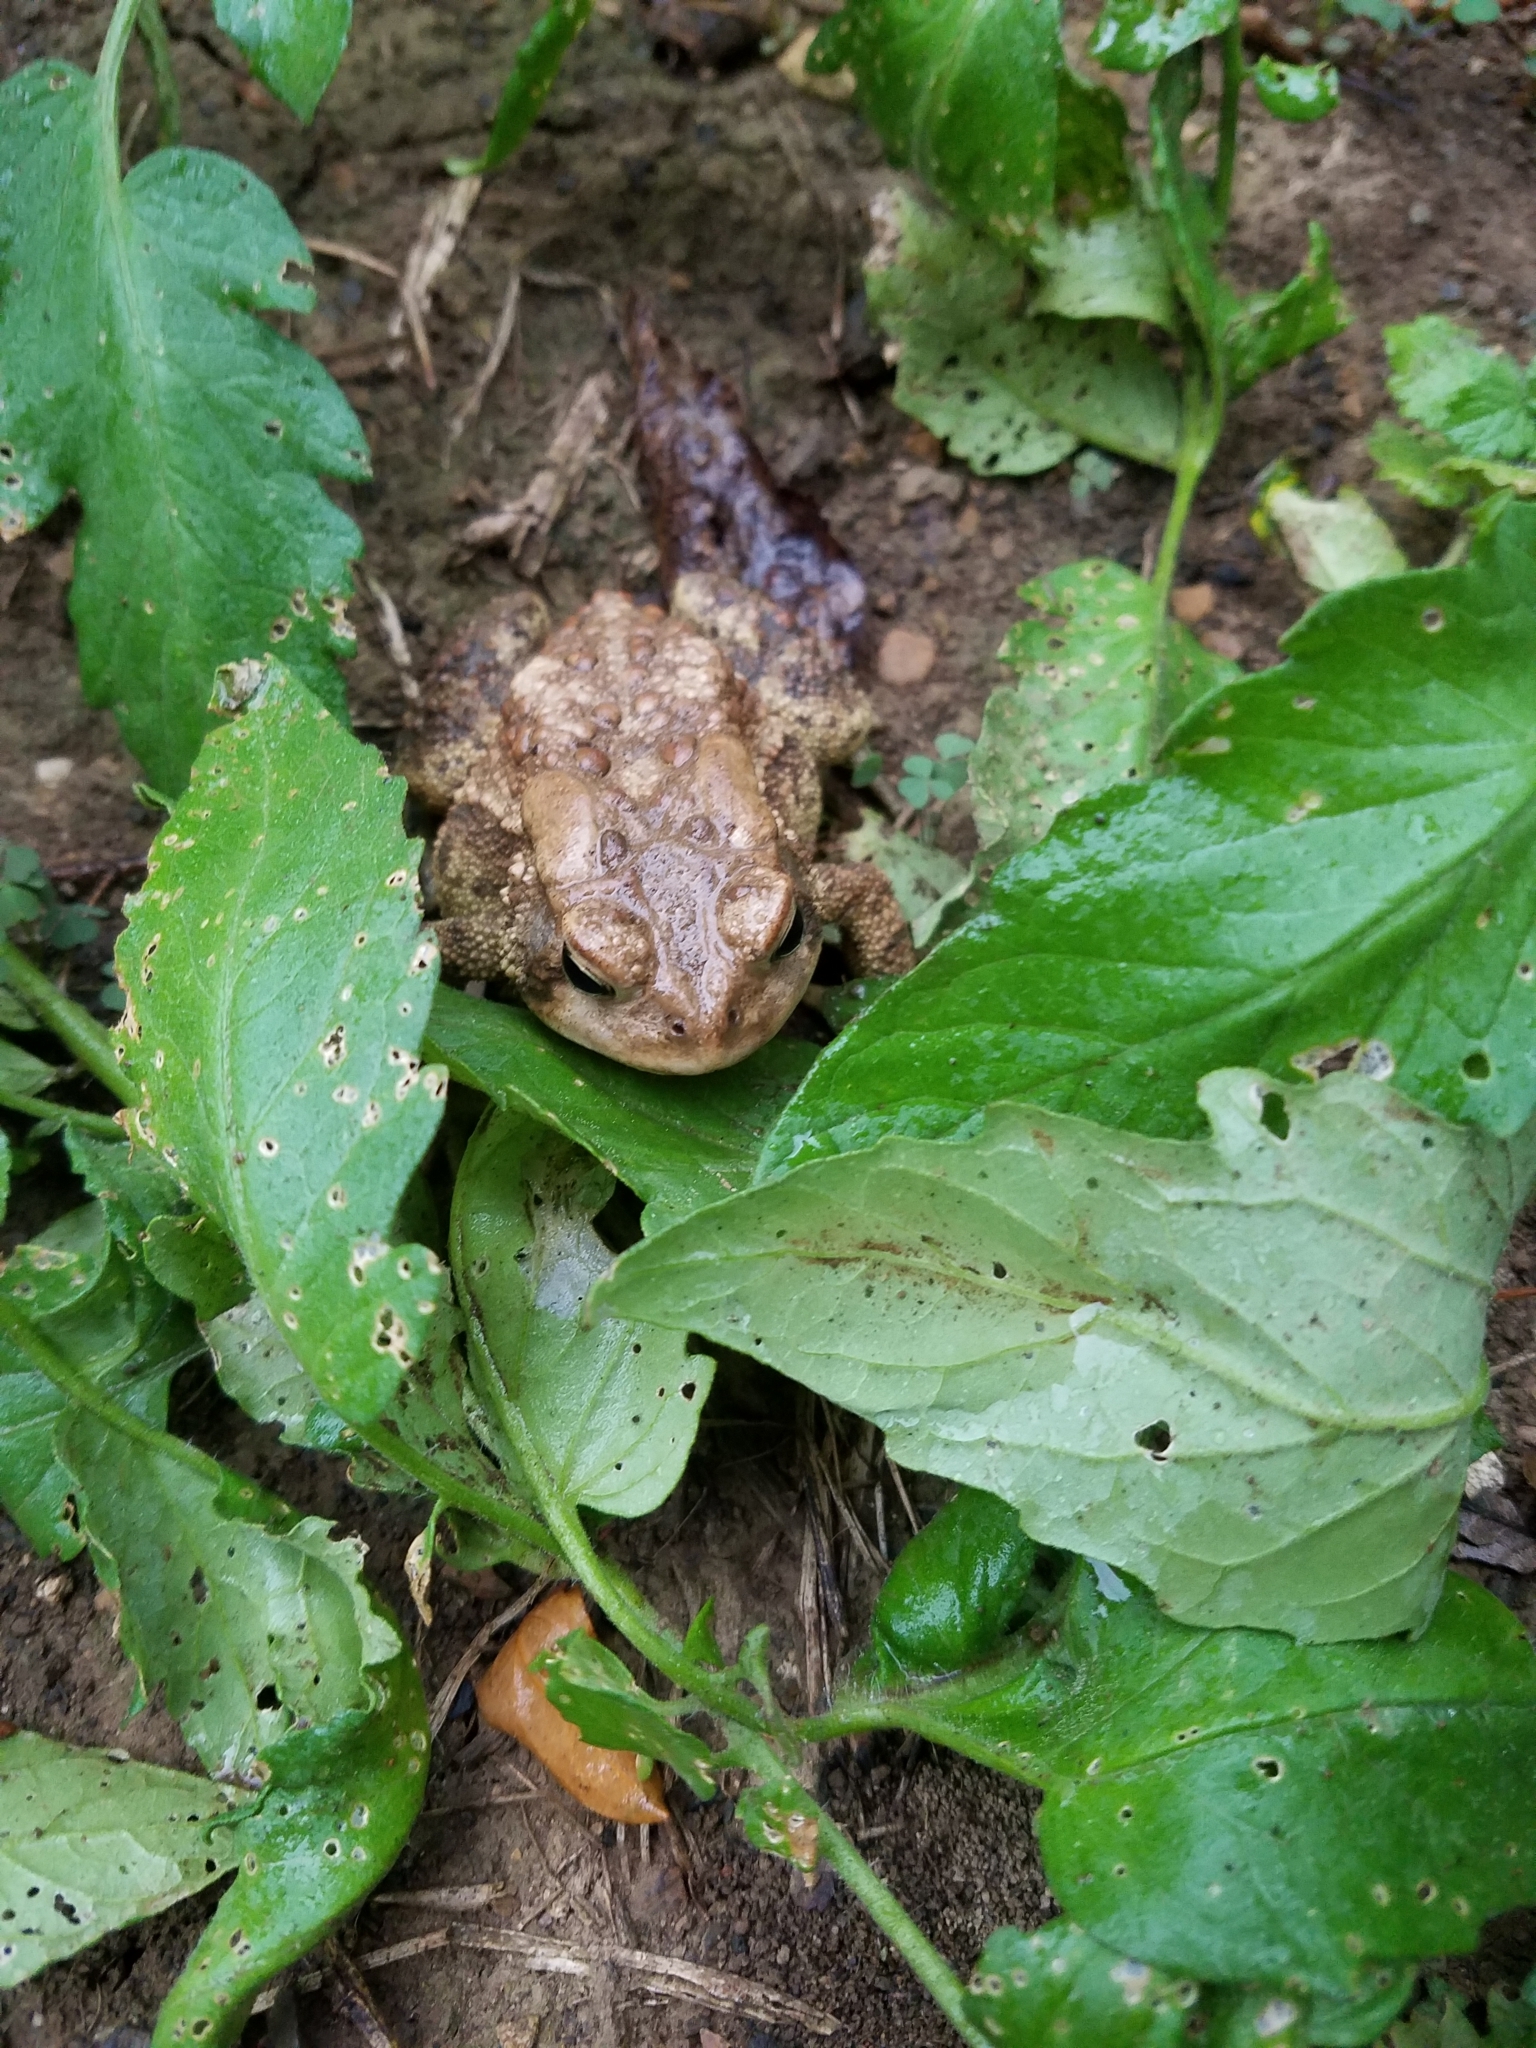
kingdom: Animalia
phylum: Chordata
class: Amphibia
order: Anura
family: Bufonidae
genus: Anaxyrus
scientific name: Anaxyrus americanus
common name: American toad
